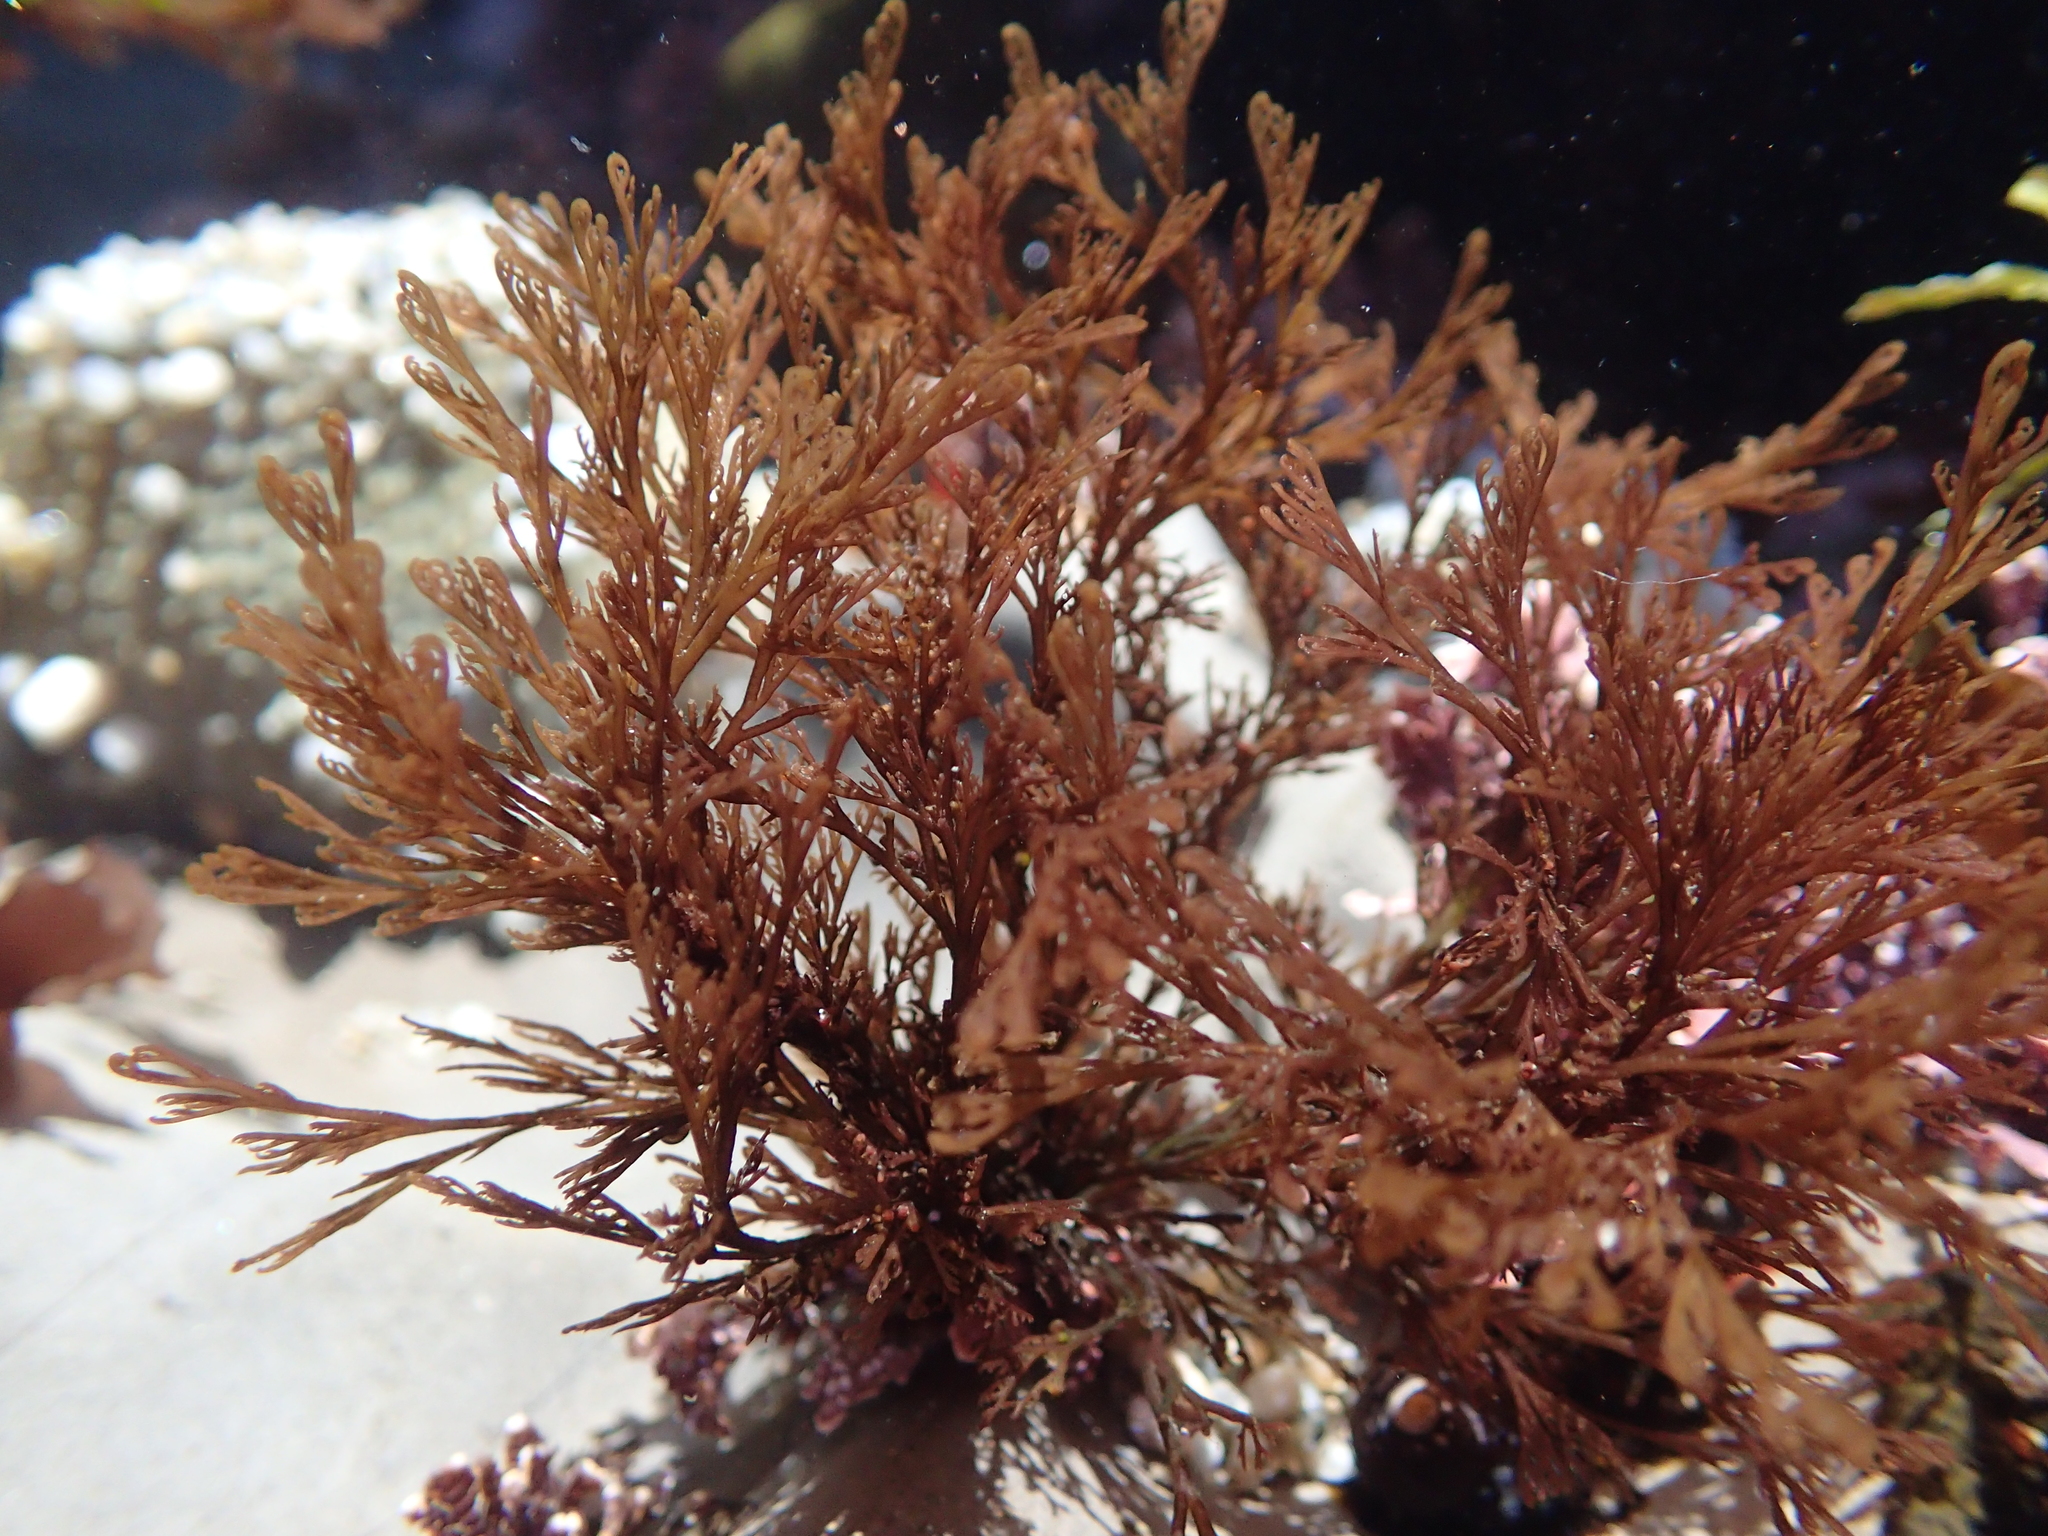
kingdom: Plantae
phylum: Rhodophyta
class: Florideophyceae
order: Ceramiales
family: Ceramiaceae
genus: Microcladia
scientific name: Microcladia borealis
